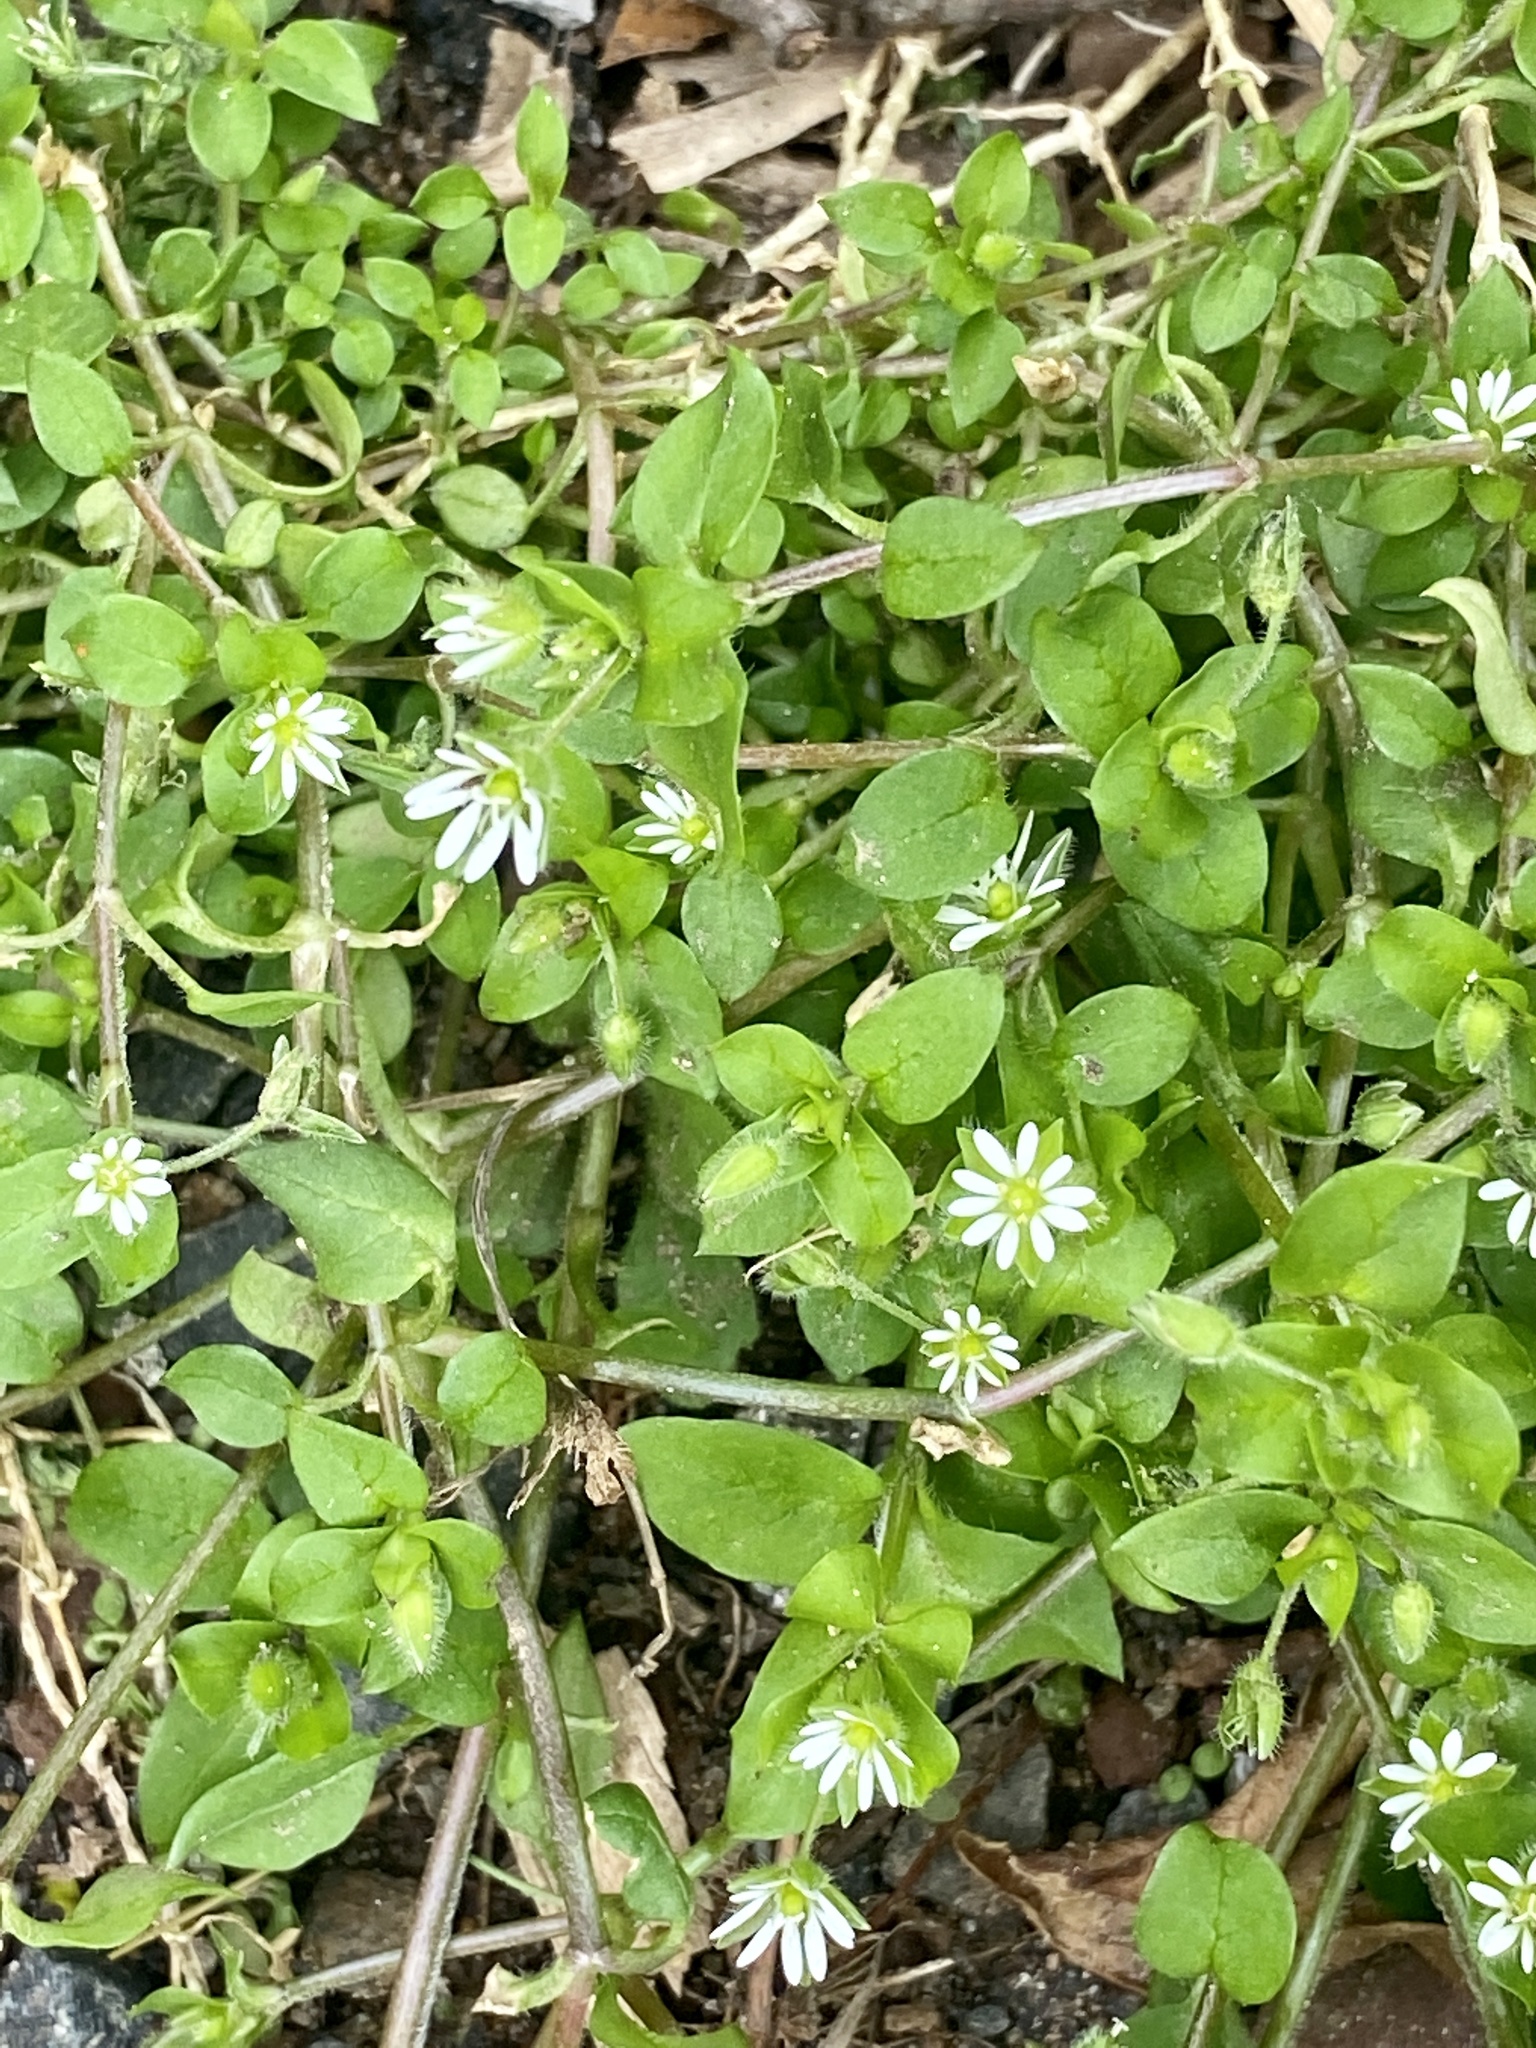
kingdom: Plantae
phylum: Tracheophyta
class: Magnoliopsida
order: Caryophyllales
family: Caryophyllaceae
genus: Stellaria
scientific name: Stellaria media
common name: Common chickweed
